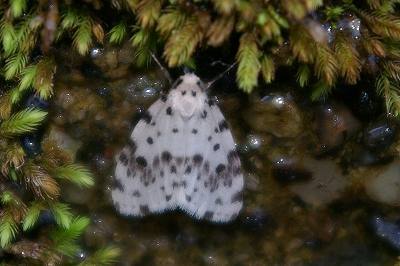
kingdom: Animalia
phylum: Arthropoda
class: Insecta
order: Lepidoptera
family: Erebidae
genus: Siccia
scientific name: Siccia altaica
